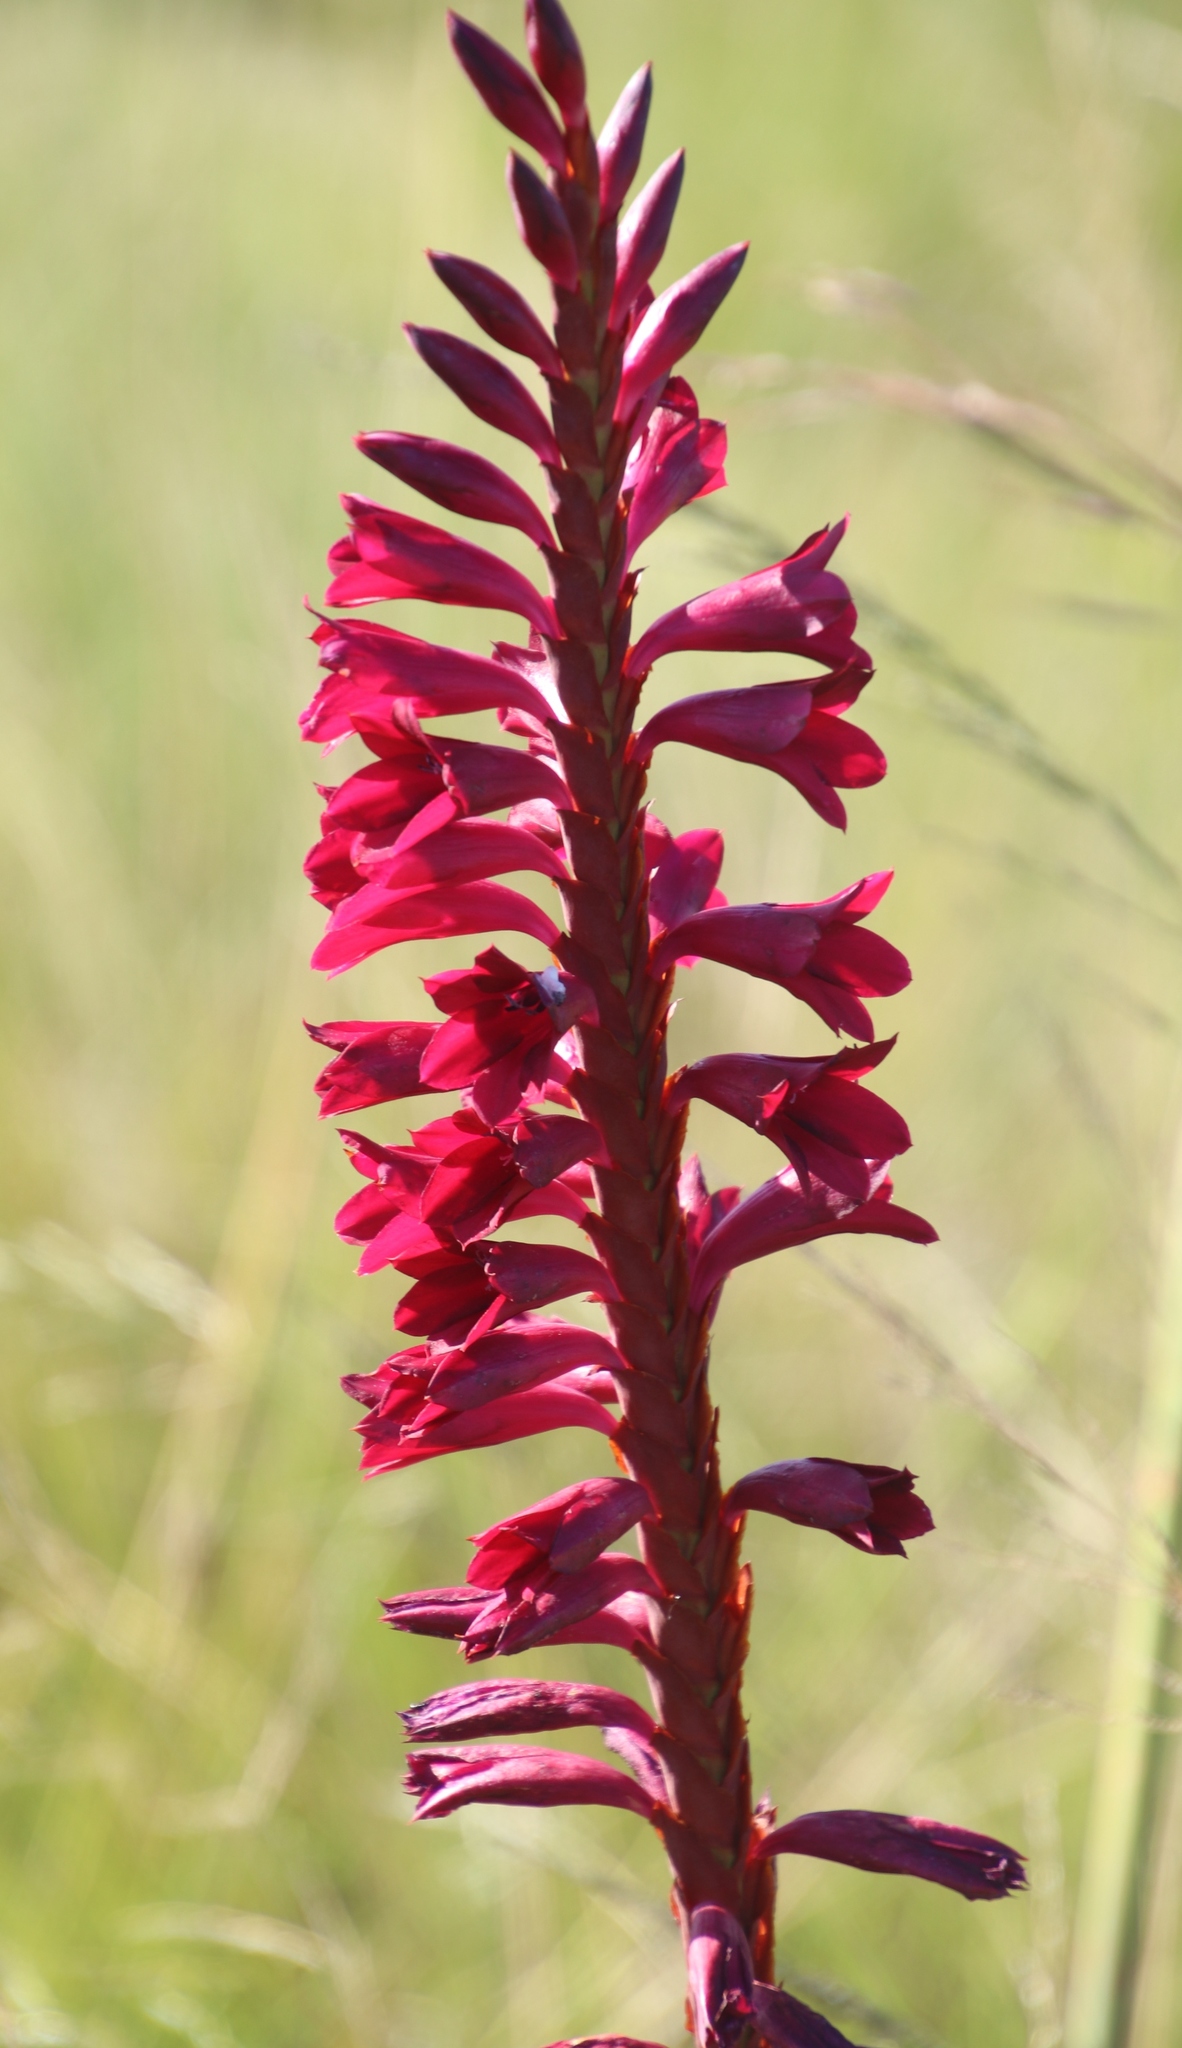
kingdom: Plantae
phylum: Tracheophyta
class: Liliopsida
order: Asparagales
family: Iridaceae
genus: Watsonia
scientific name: Watsonia pulchra
